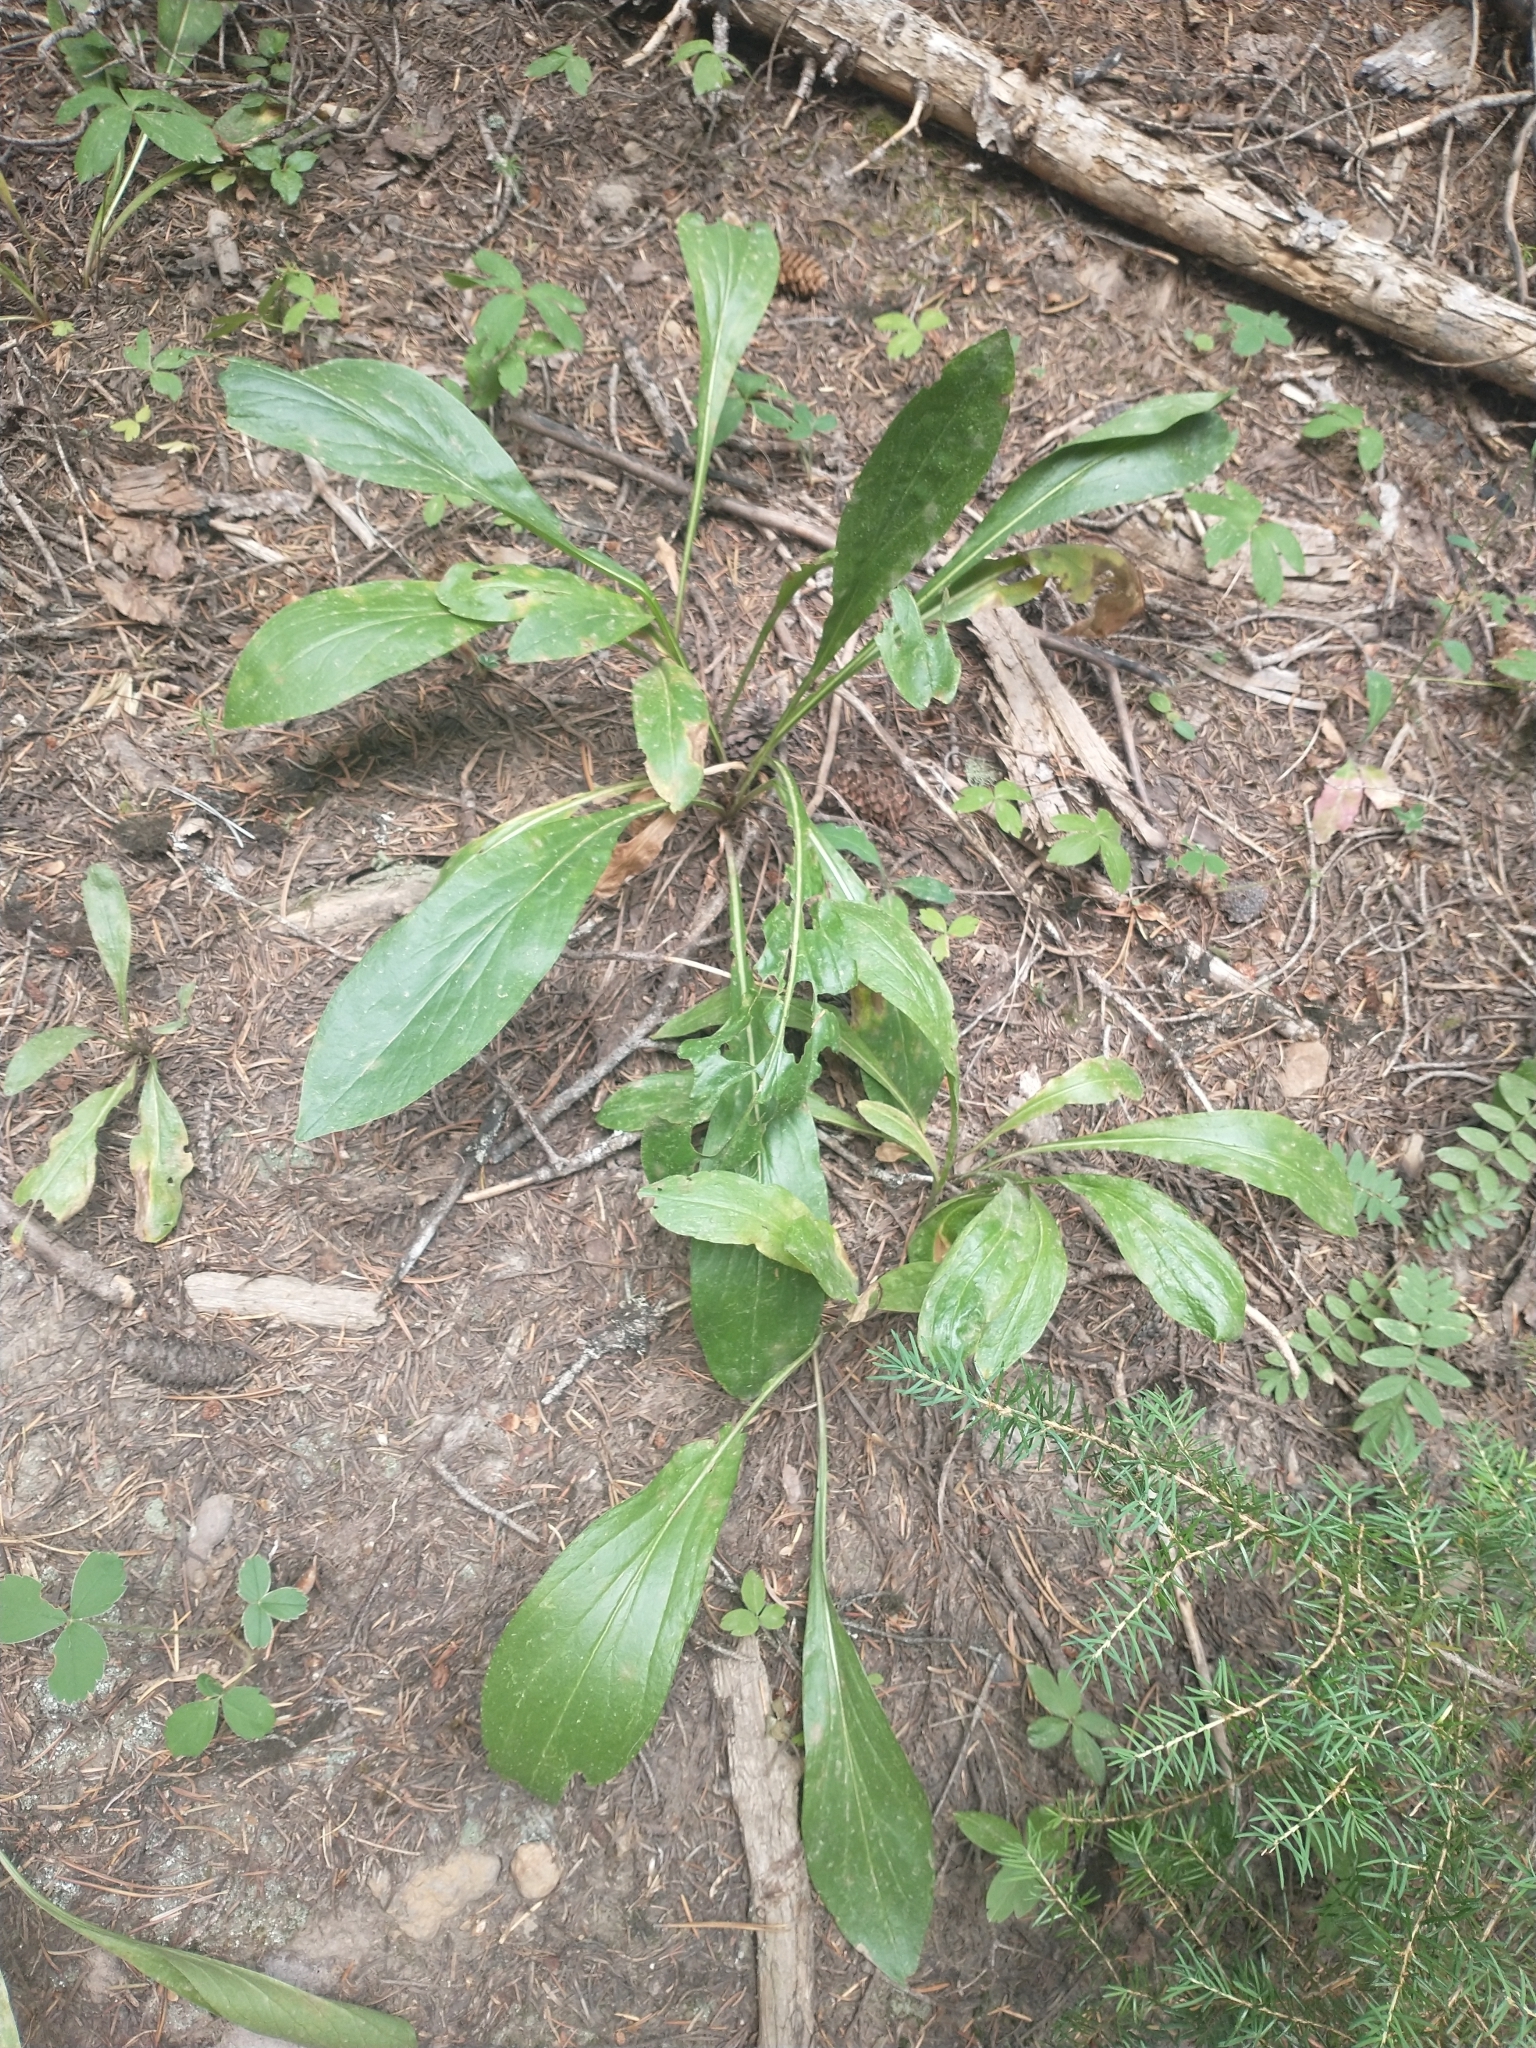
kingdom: Plantae
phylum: Tracheophyta
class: Magnoliopsida
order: Asterales
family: Asteraceae
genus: Rainiera
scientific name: Rainiera stricta
